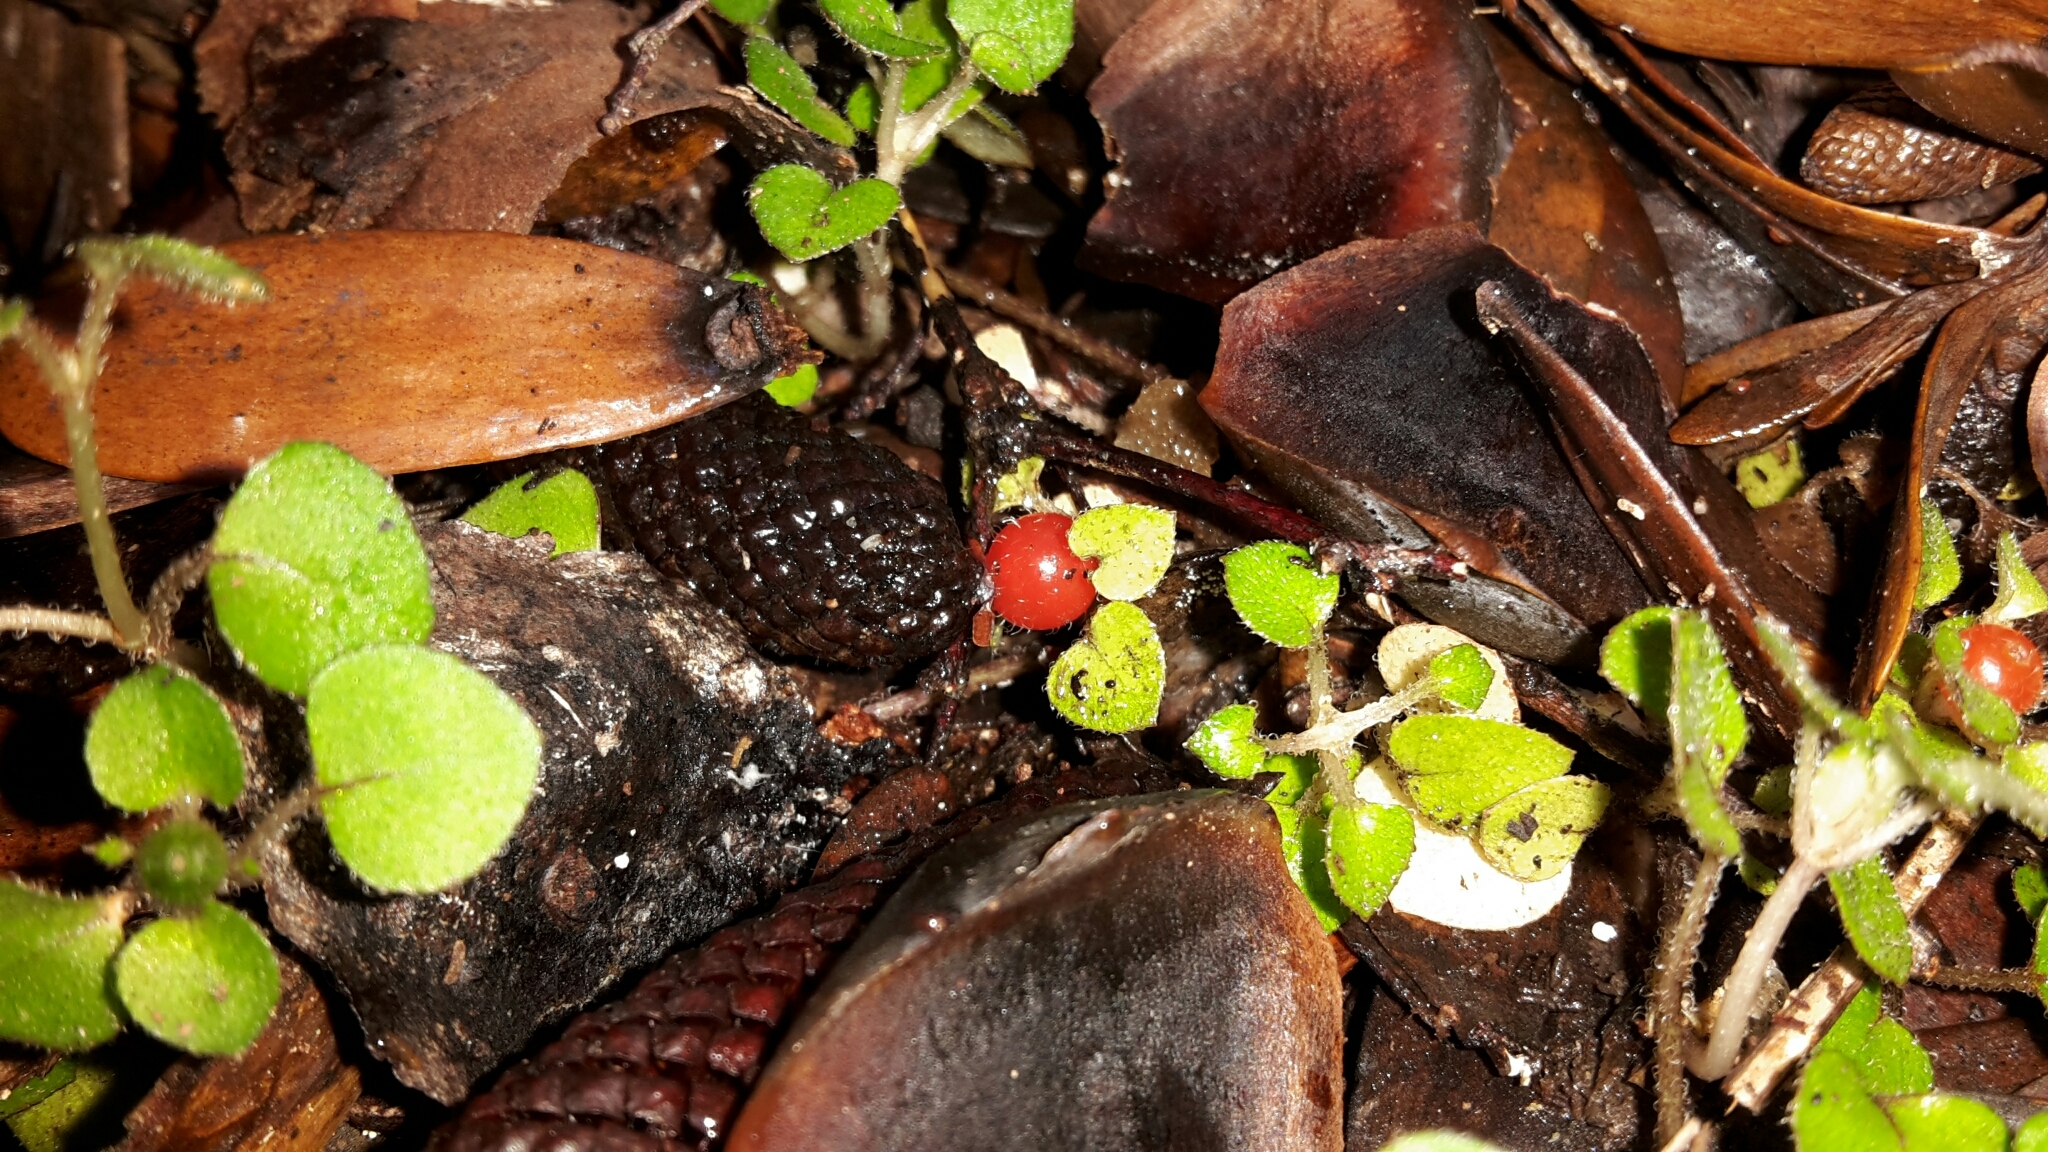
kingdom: Plantae
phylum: Tracheophyta
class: Magnoliopsida
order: Gentianales
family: Rubiaceae
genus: Nertera
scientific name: Nertera dichondrifolia
